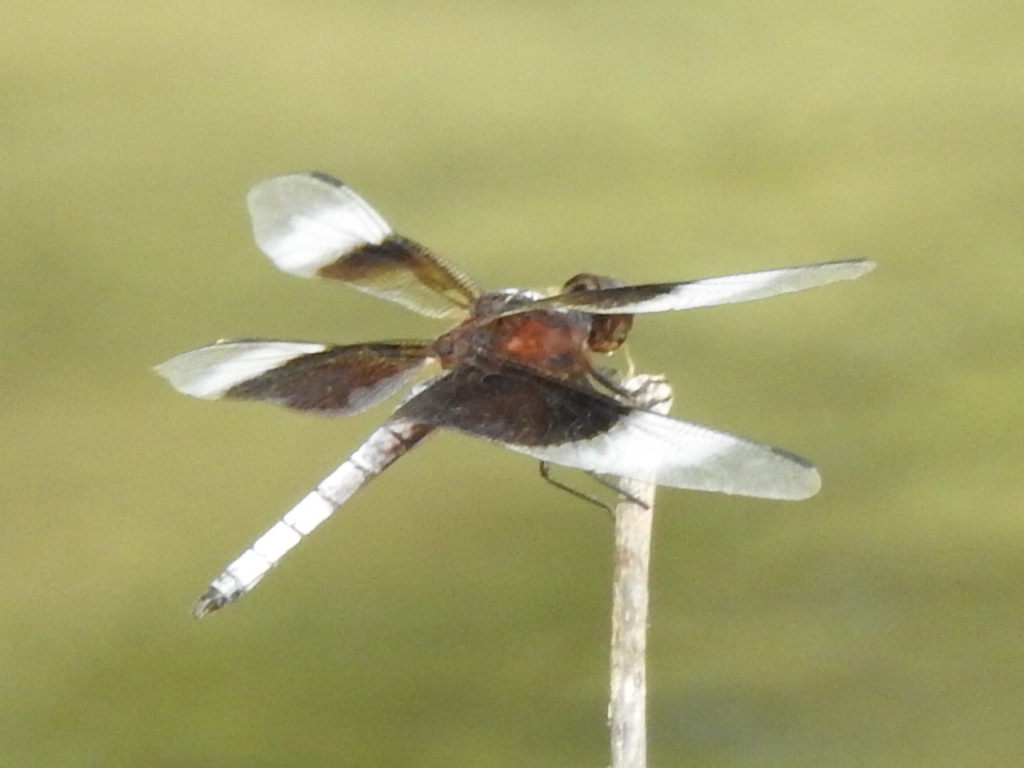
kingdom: Animalia
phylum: Arthropoda
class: Insecta
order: Odonata
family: Libellulidae
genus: Libellula
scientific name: Libellula luctuosa
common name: Widow skimmer
